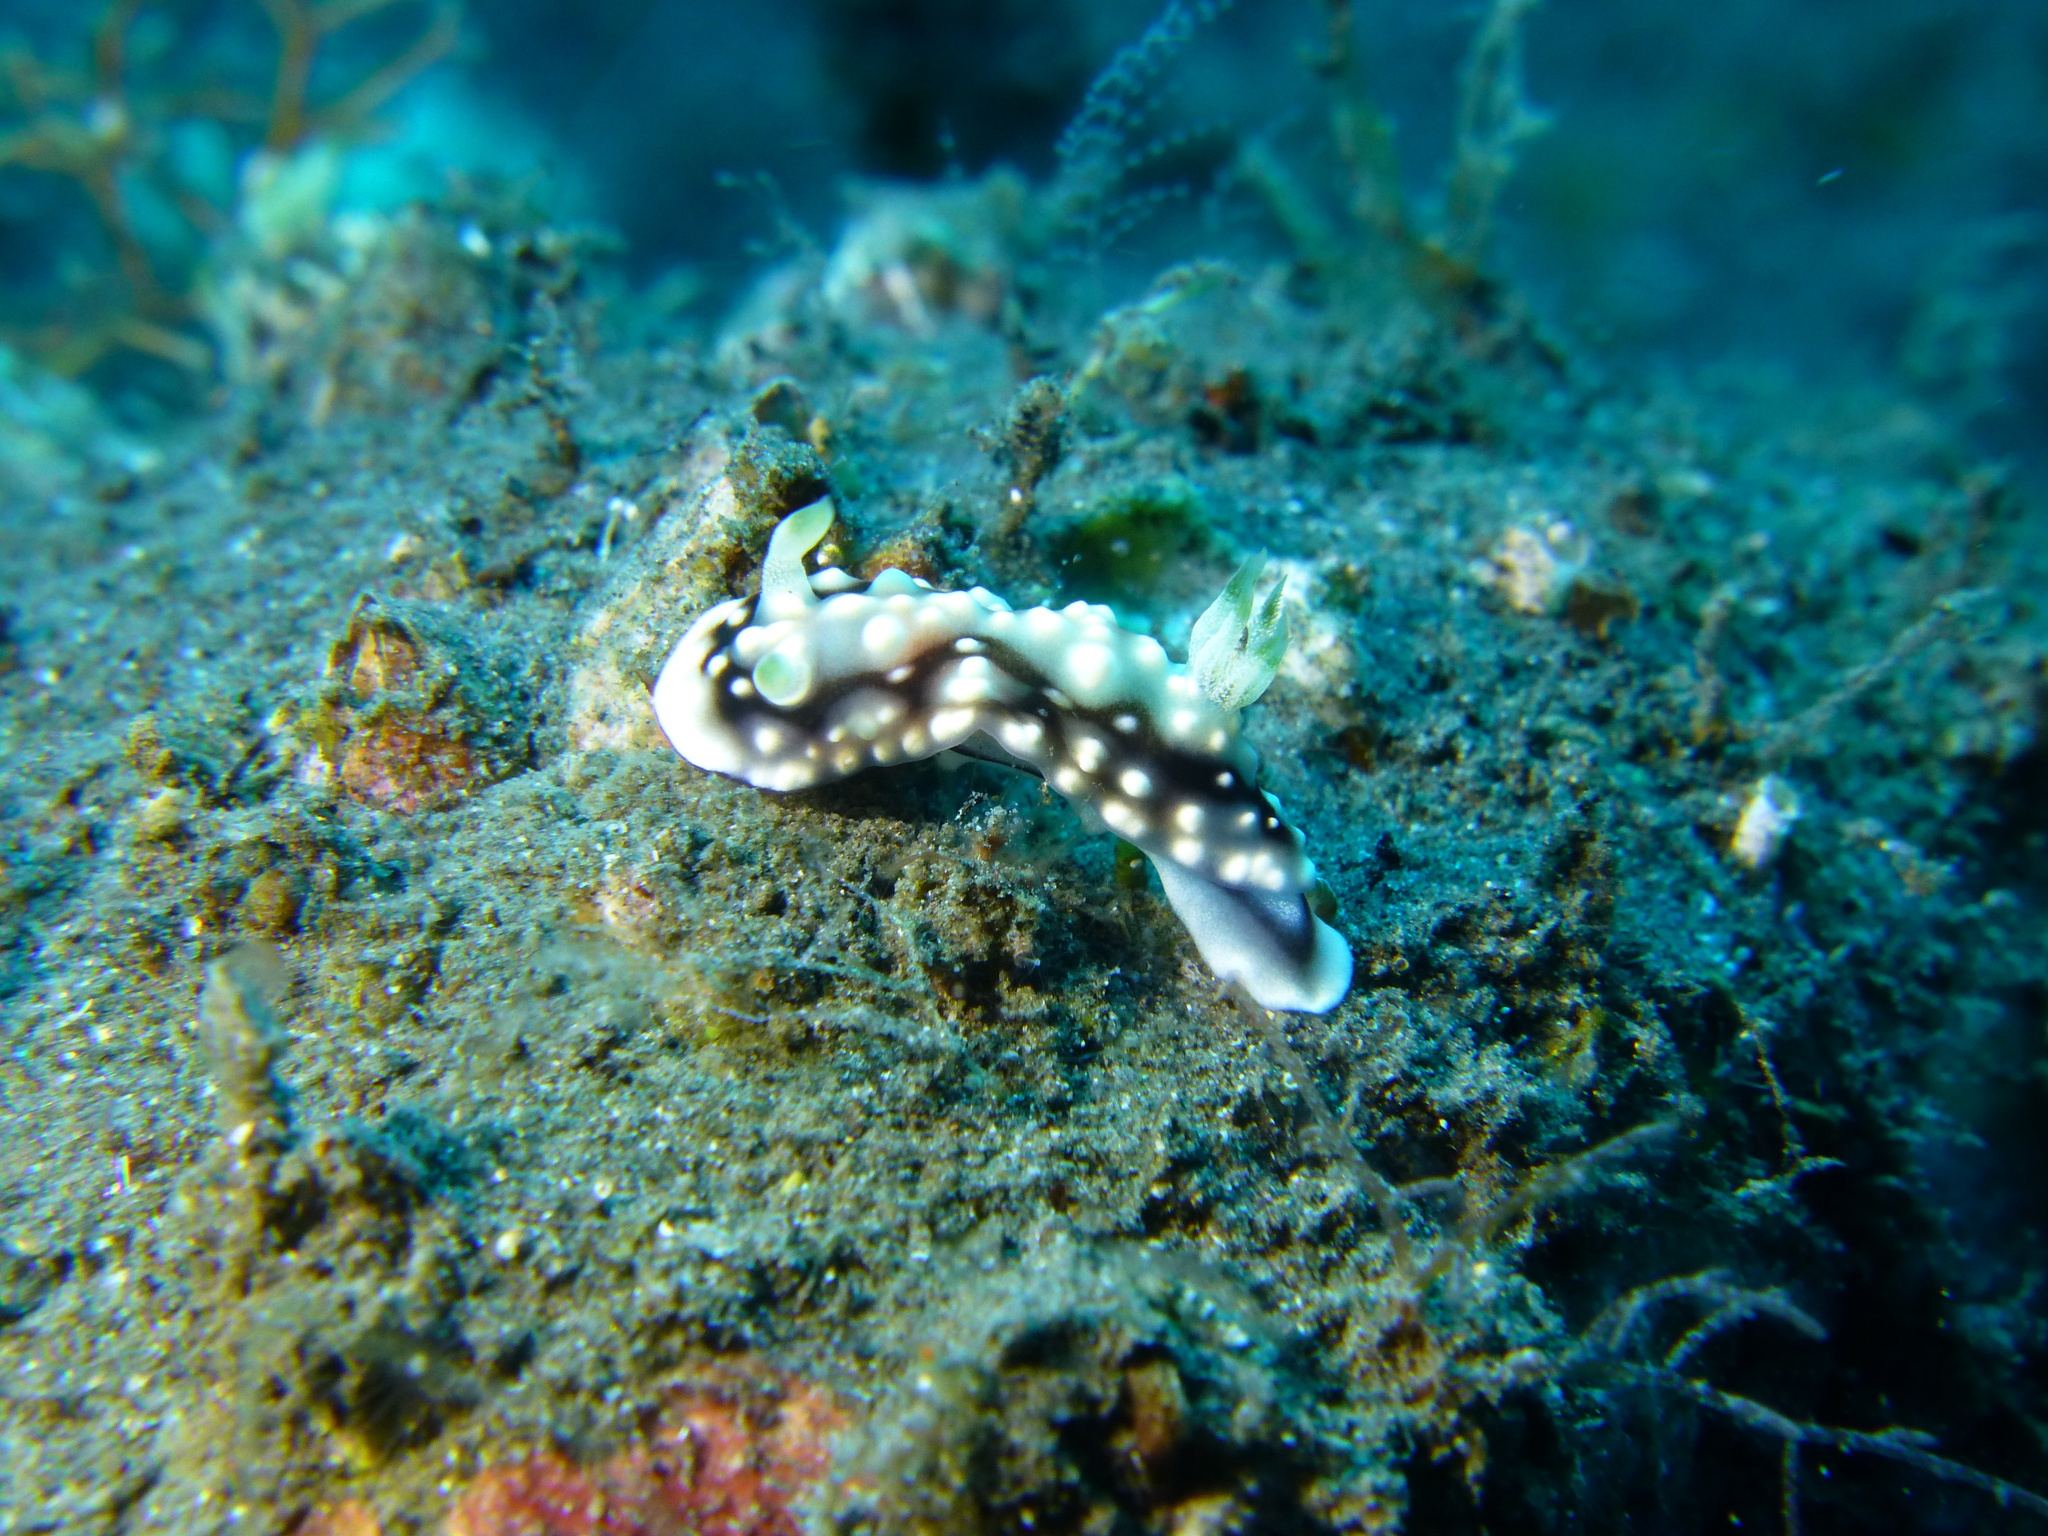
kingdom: Animalia
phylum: Mollusca
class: Gastropoda
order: Nudibranchia
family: Chromodorididae
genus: Goniobranchus
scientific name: Goniobranchus geometricus
